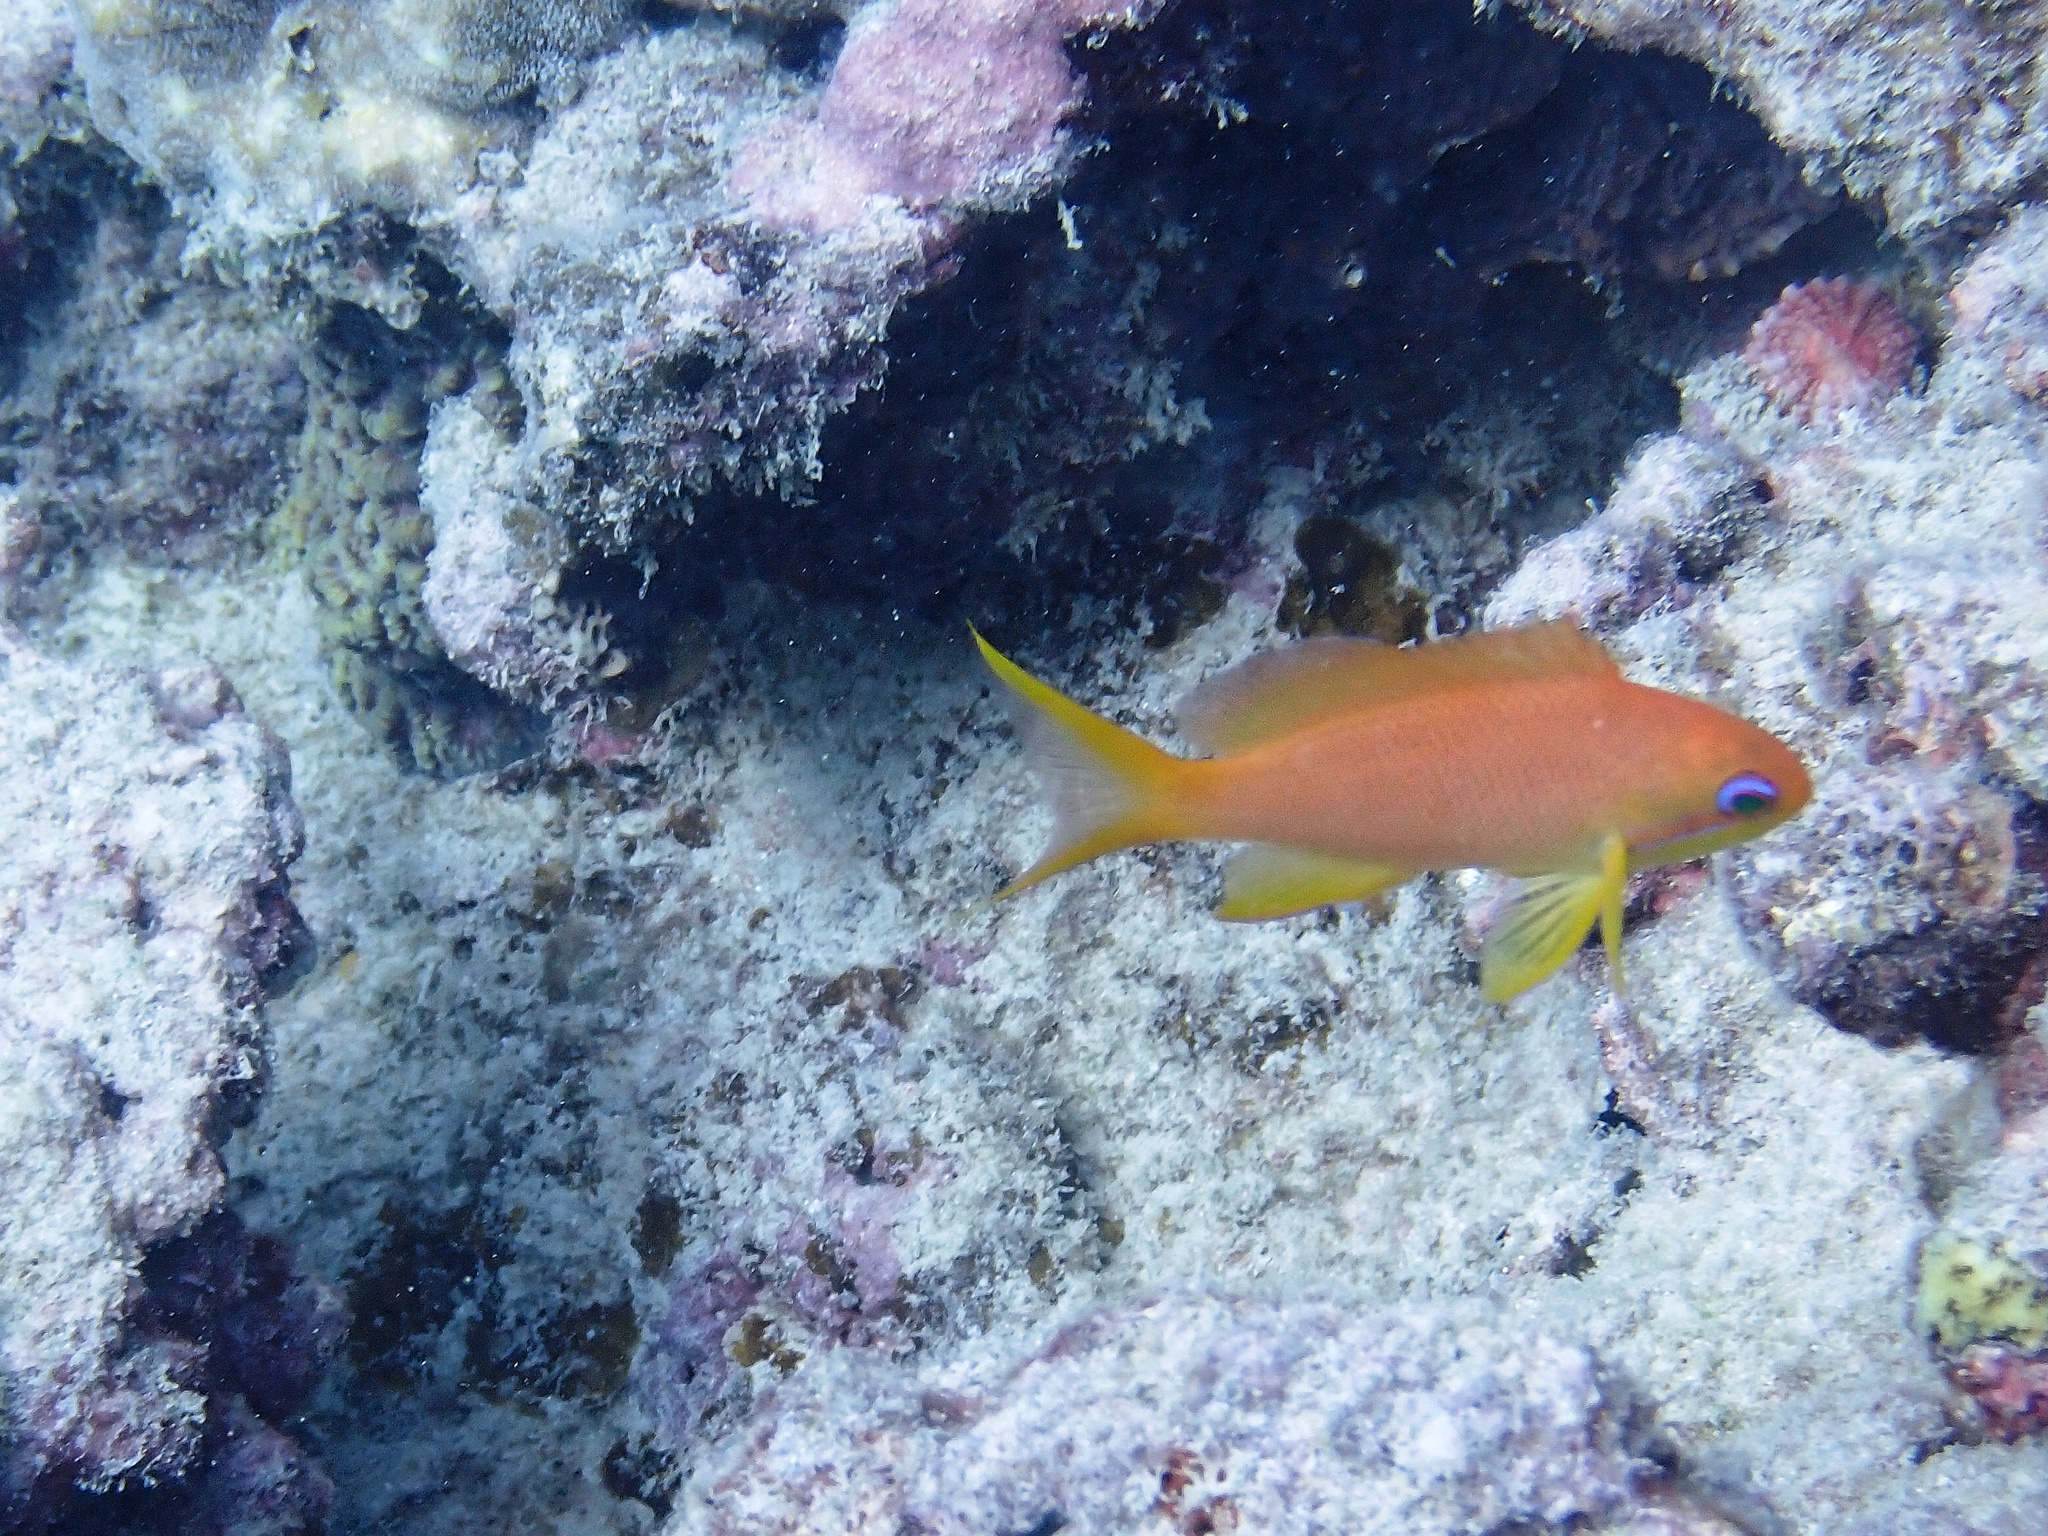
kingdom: Animalia
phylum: Chordata
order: Perciformes
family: Serranidae
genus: Pseudanthias
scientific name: Pseudanthias squamipinnis
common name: Scalefin anthias
